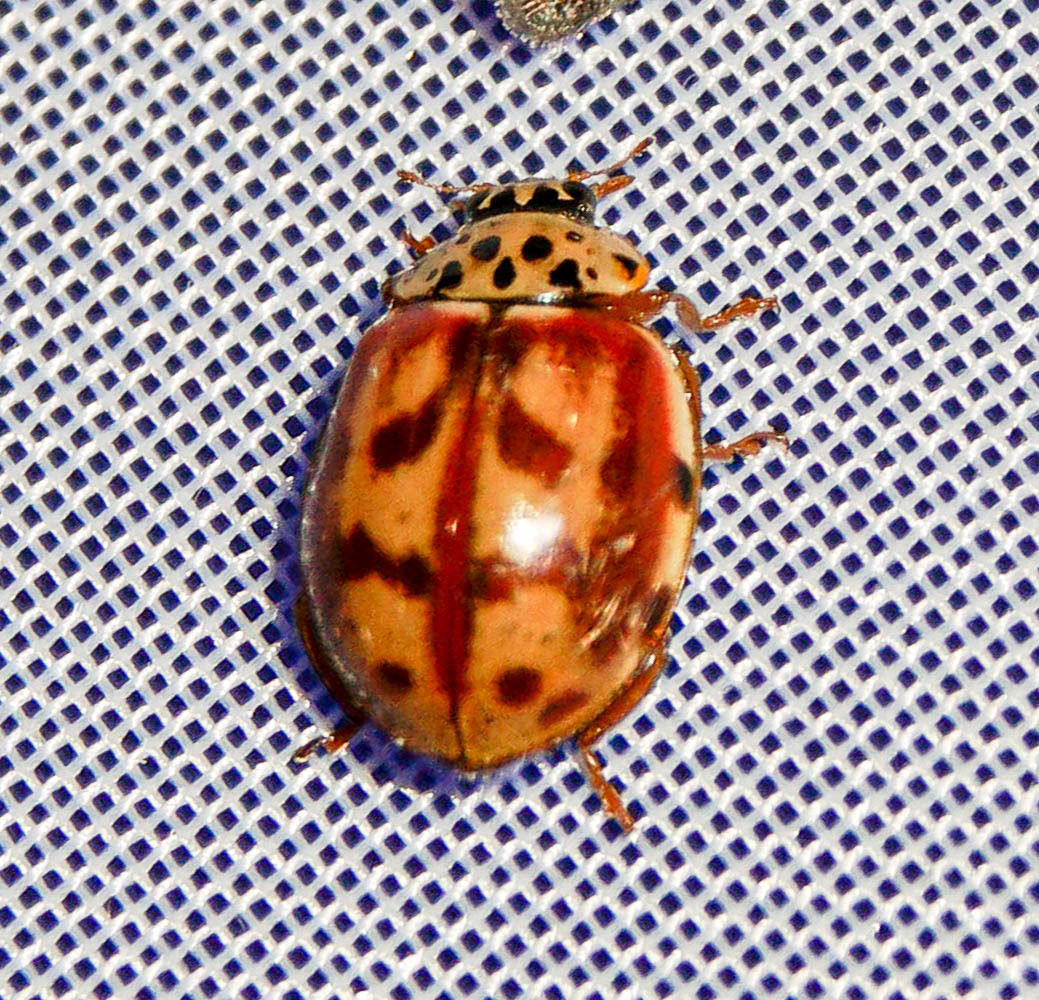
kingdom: Animalia
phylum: Arthropoda
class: Insecta
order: Coleoptera
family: Coccinellidae
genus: Harmonia
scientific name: Harmonia quadripunctata
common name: Cream-streaked ladybird
